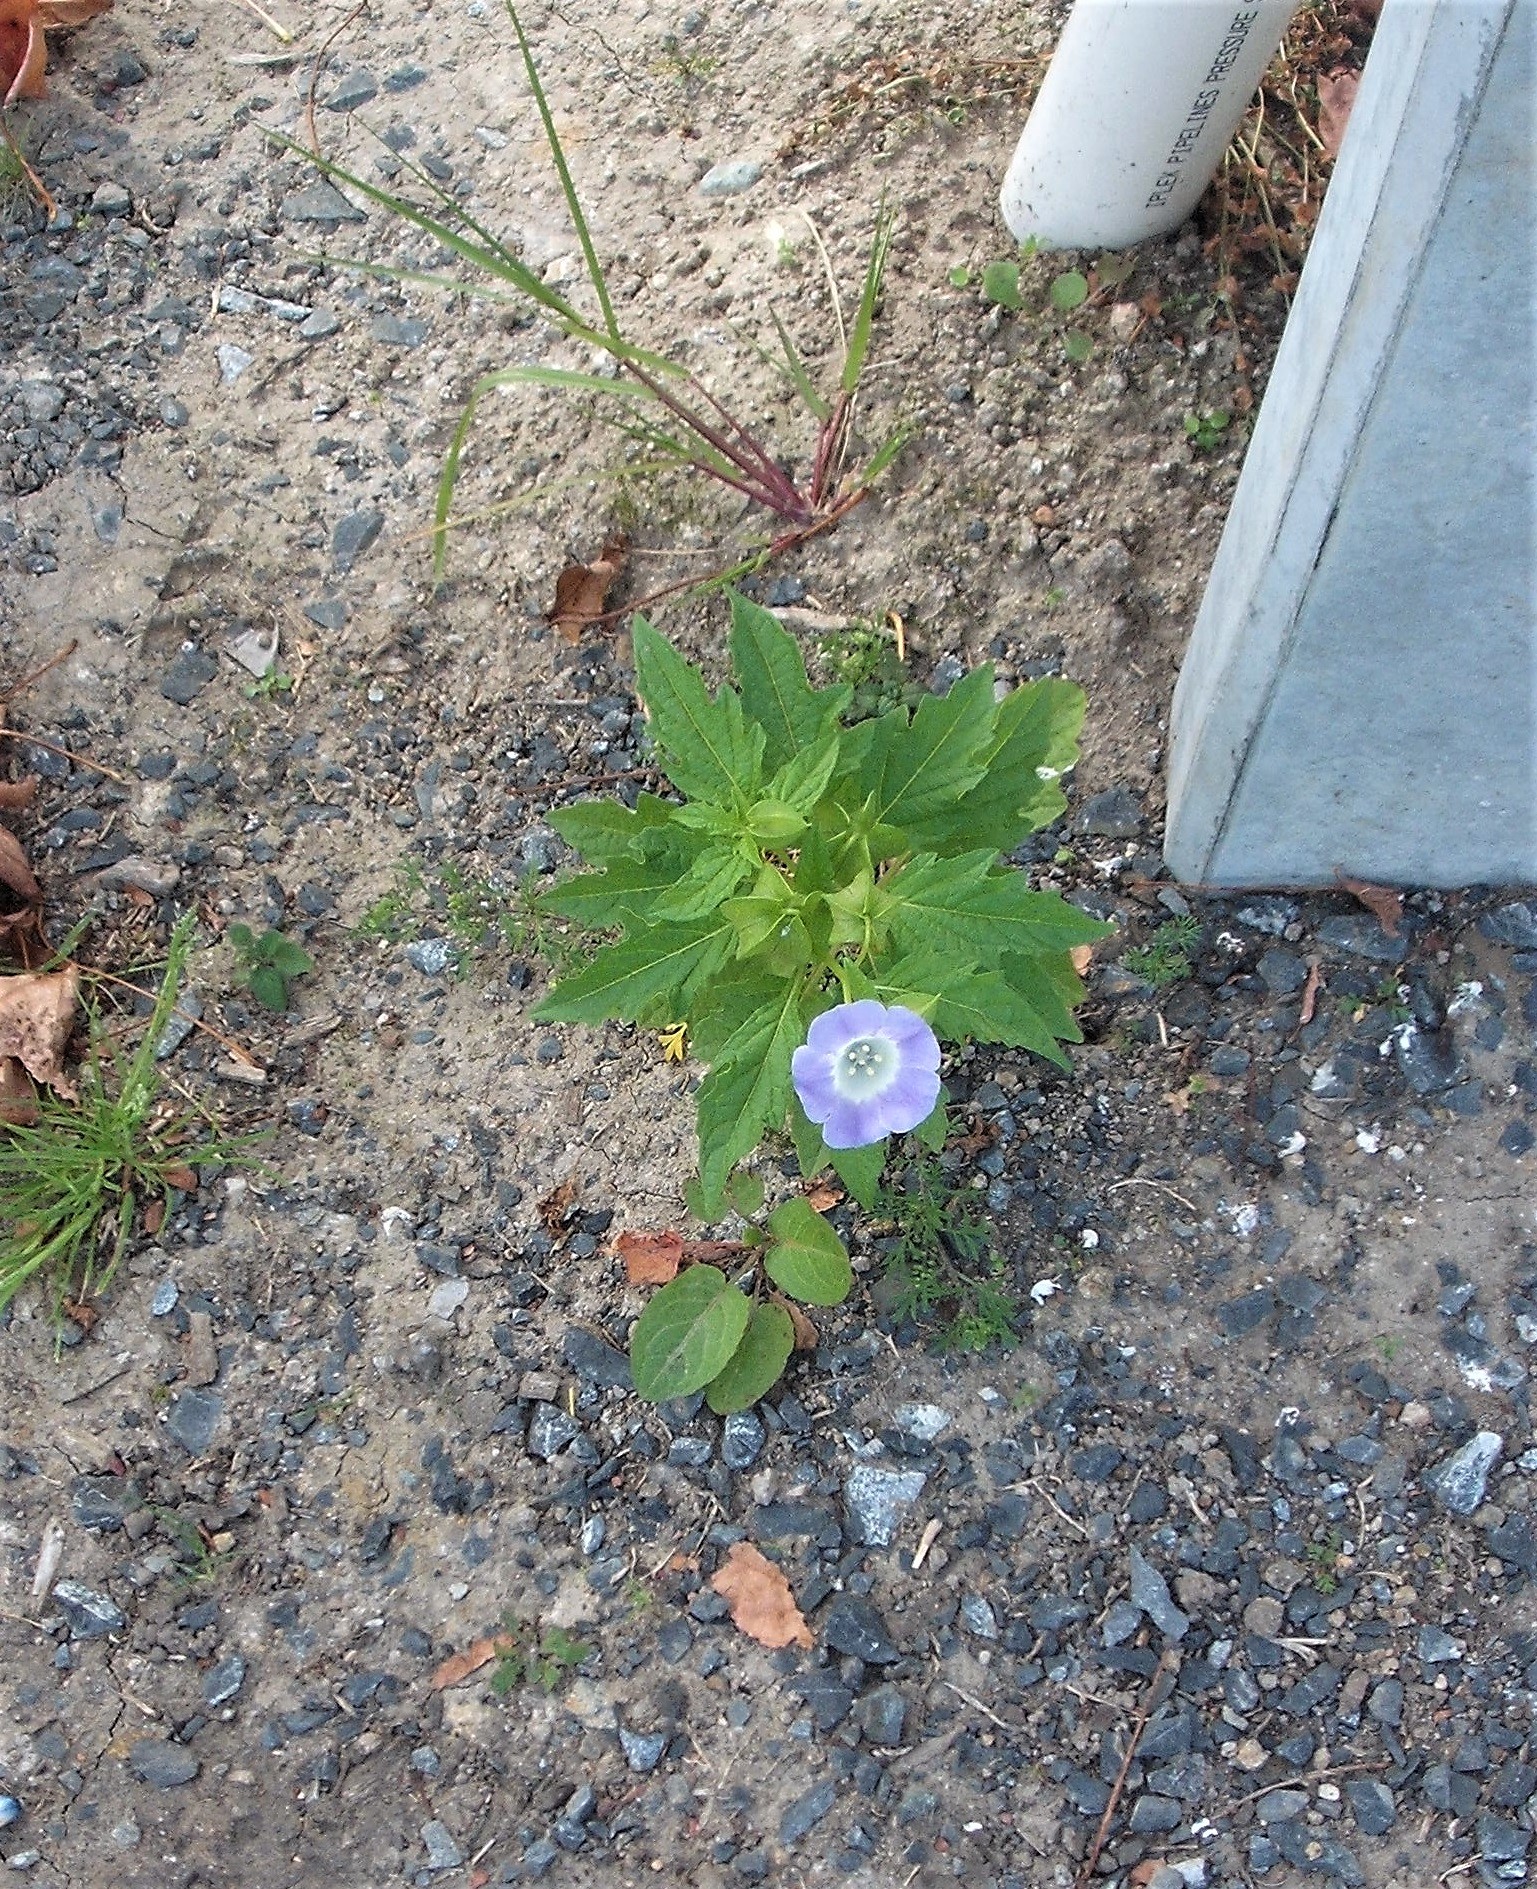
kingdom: Plantae
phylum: Tracheophyta
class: Magnoliopsida
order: Solanales
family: Solanaceae
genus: Nicandra
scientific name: Nicandra physalodes
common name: Apple-of-peru
